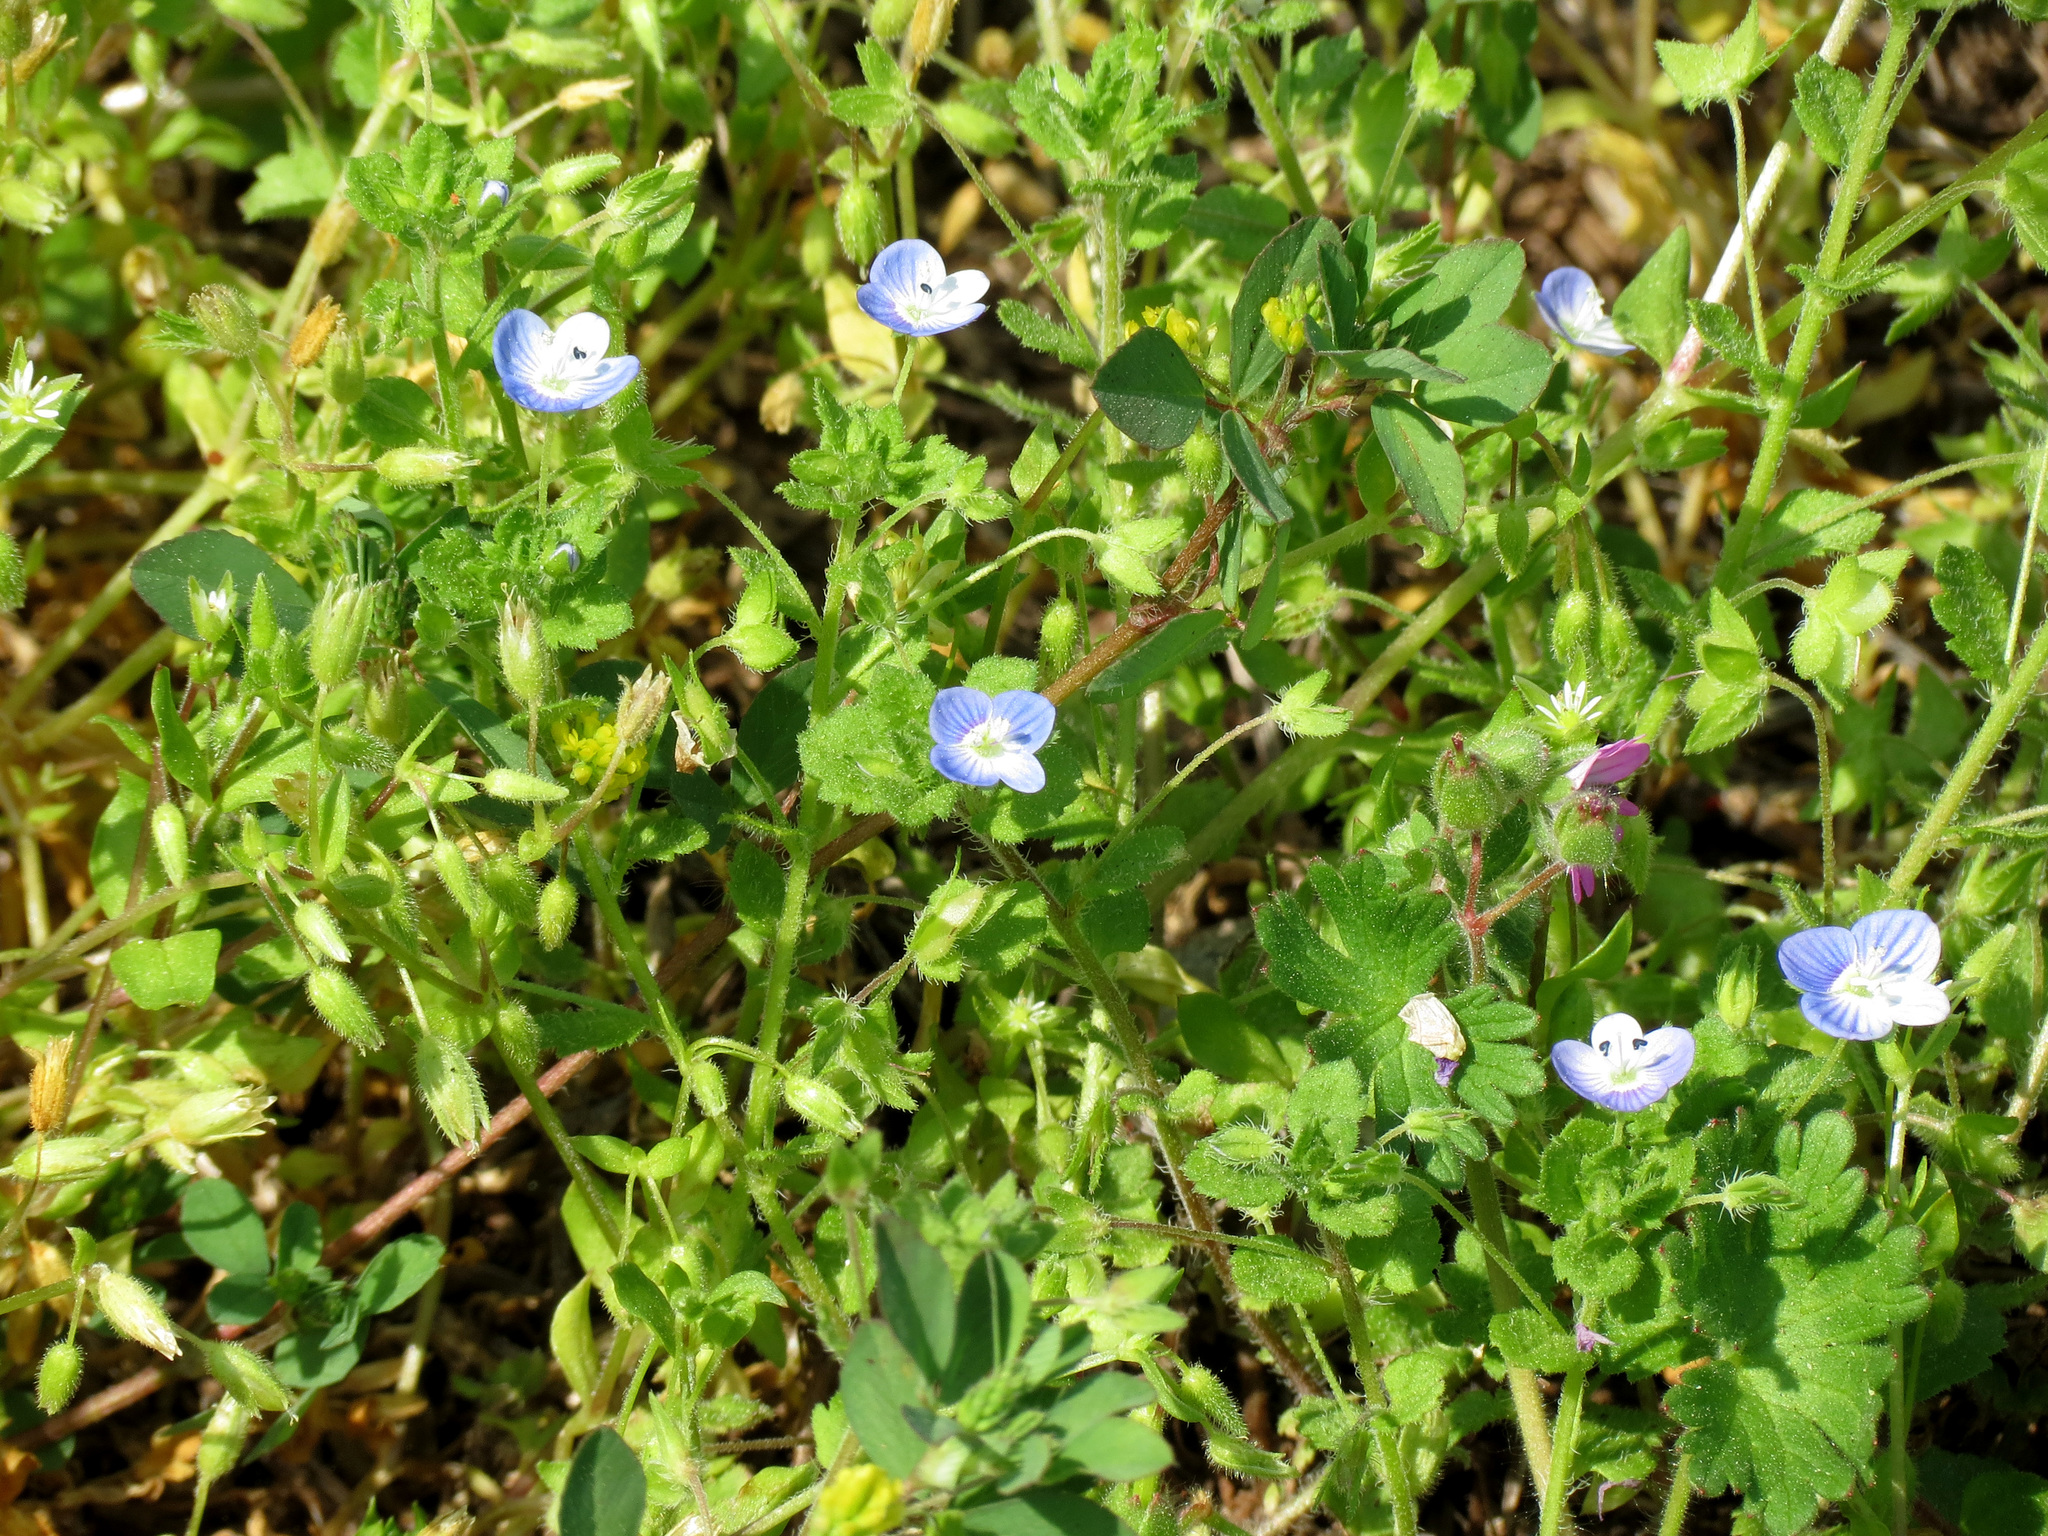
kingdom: Plantae
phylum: Tracheophyta
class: Magnoliopsida
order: Lamiales
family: Plantaginaceae
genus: Veronica
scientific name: Veronica persica
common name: Common field-speedwell
